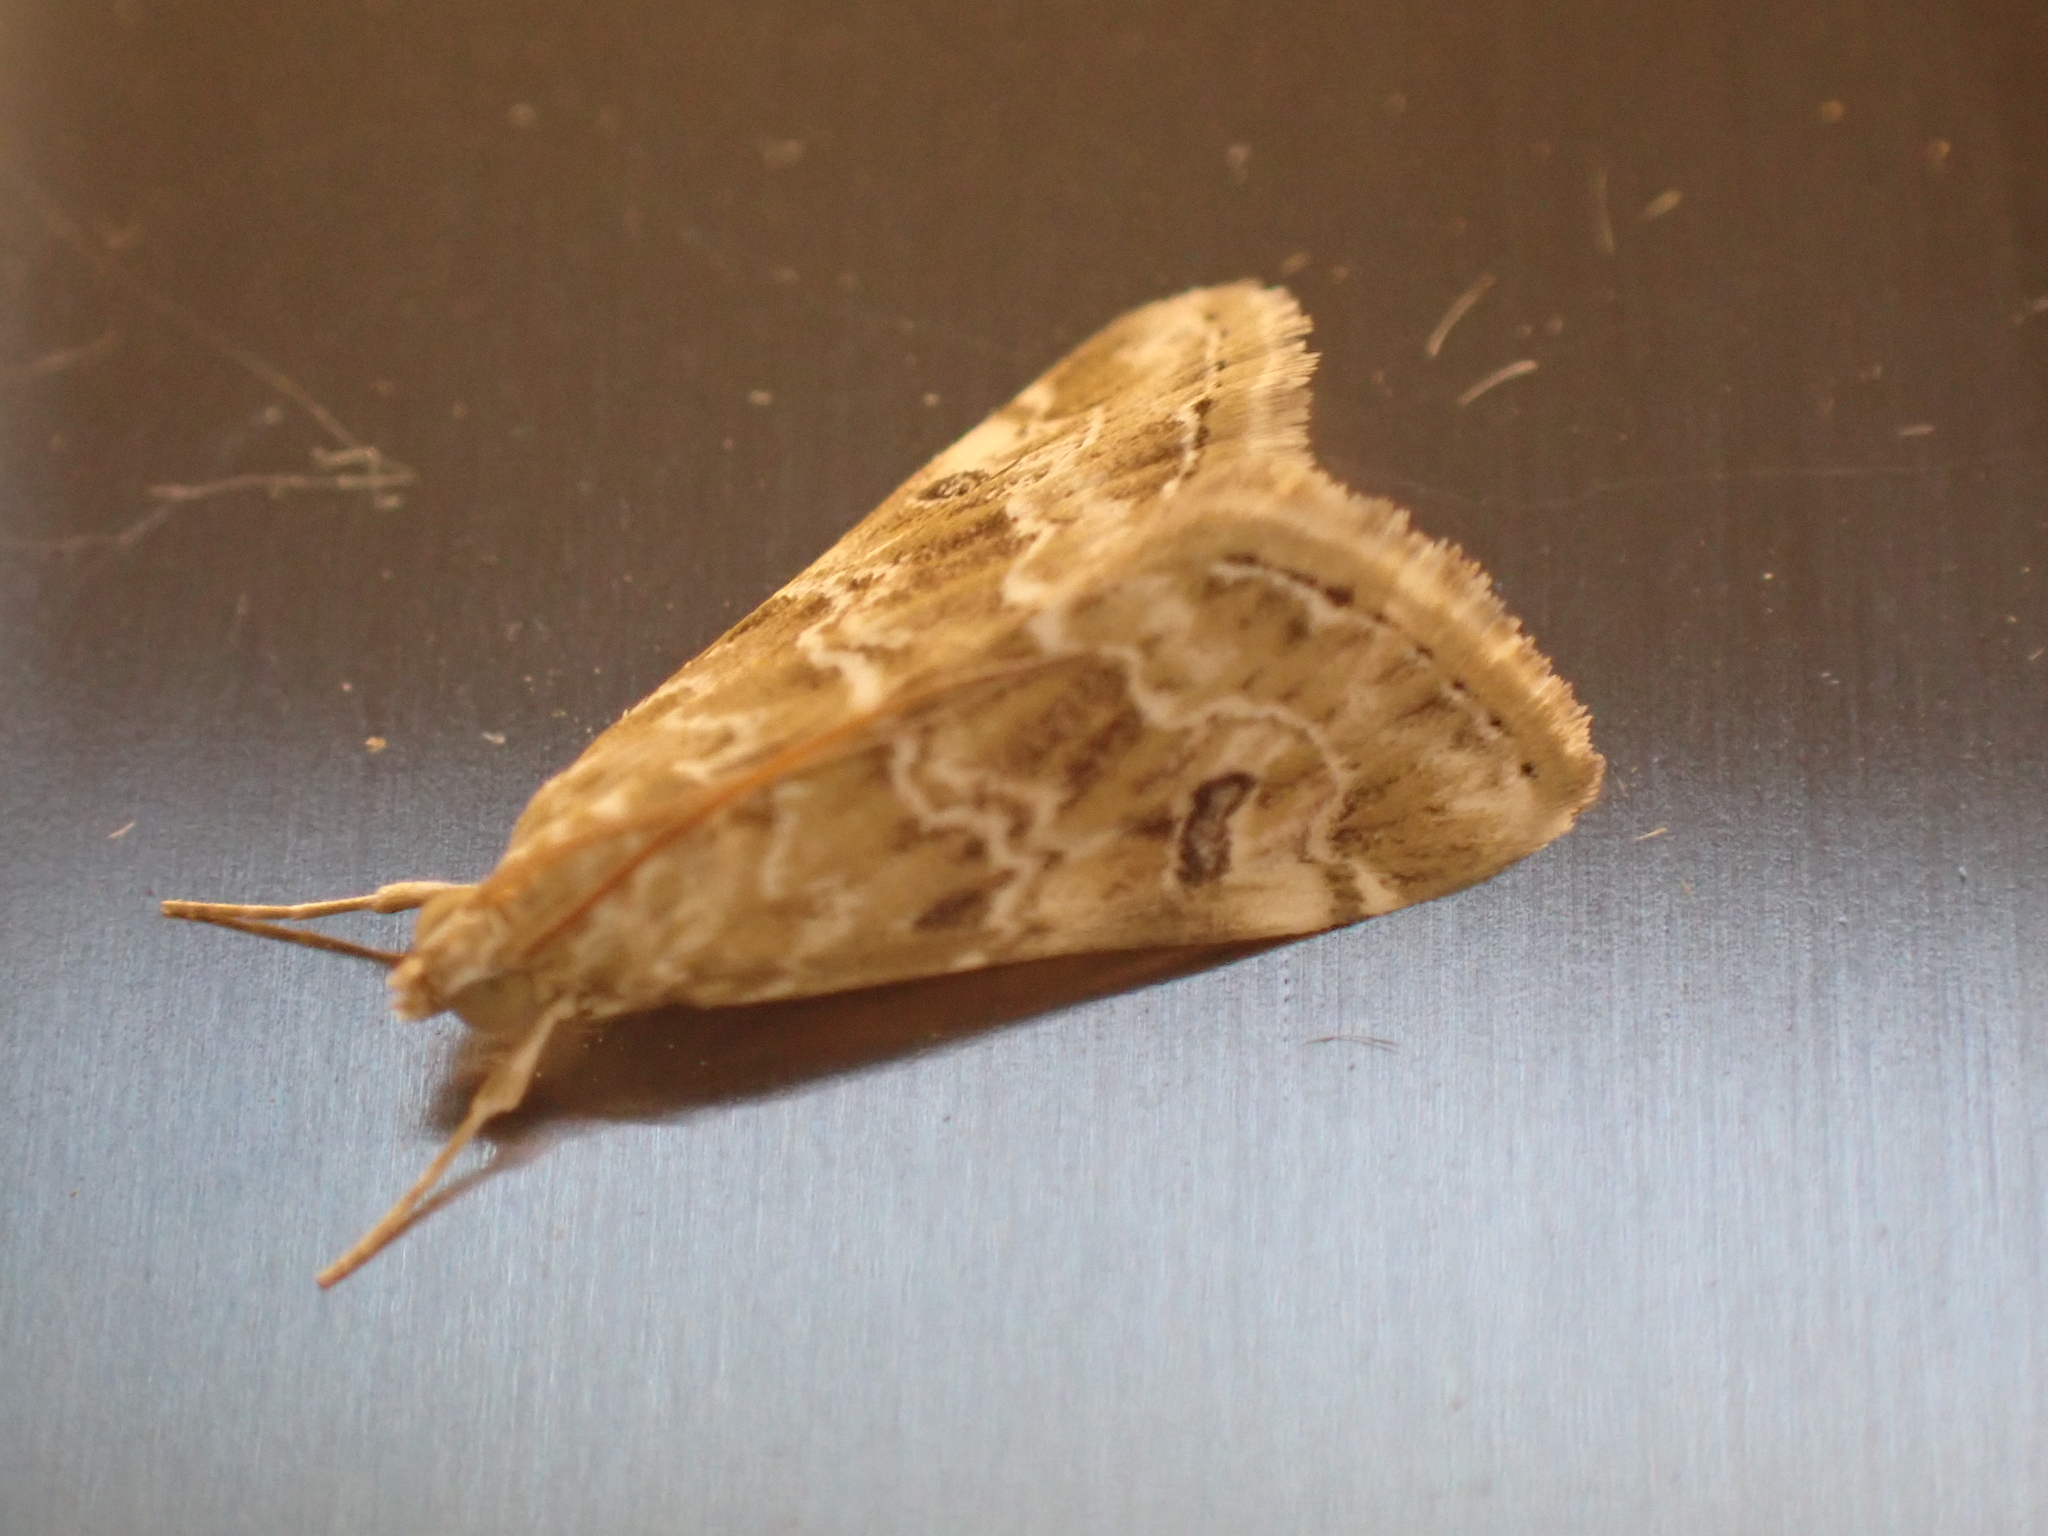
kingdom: Animalia
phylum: Arthropoda
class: Insecta
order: Lepidoptera
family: Crambidae
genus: Hellula
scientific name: Hellula undalis
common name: Cabbage webworm
